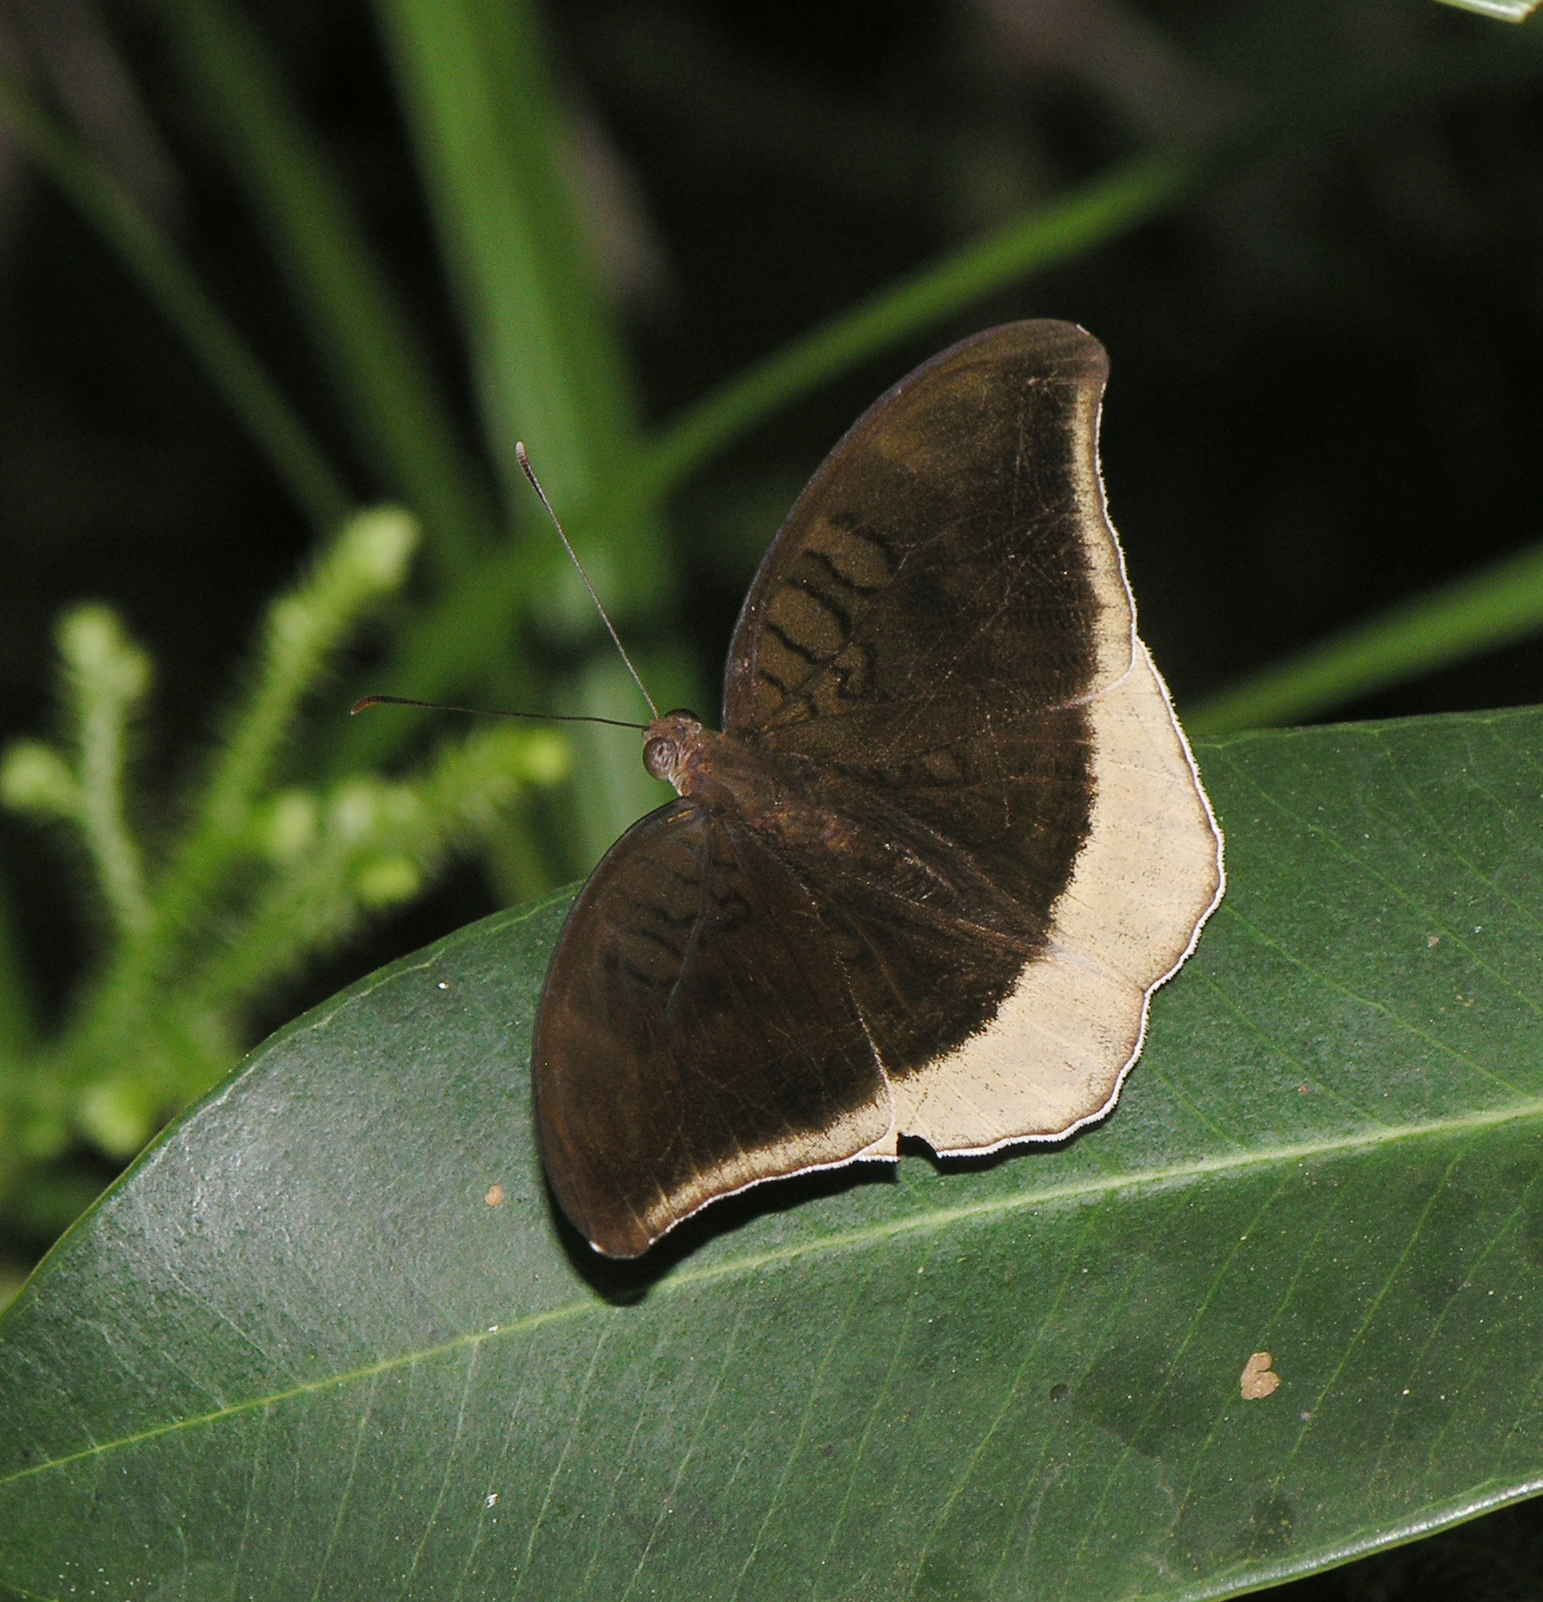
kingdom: Animalia
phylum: Arthropoda
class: Insecta
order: Lepidoptera
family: Nymphalidae
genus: Tanaecia
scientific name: Tanaecia lepidea
